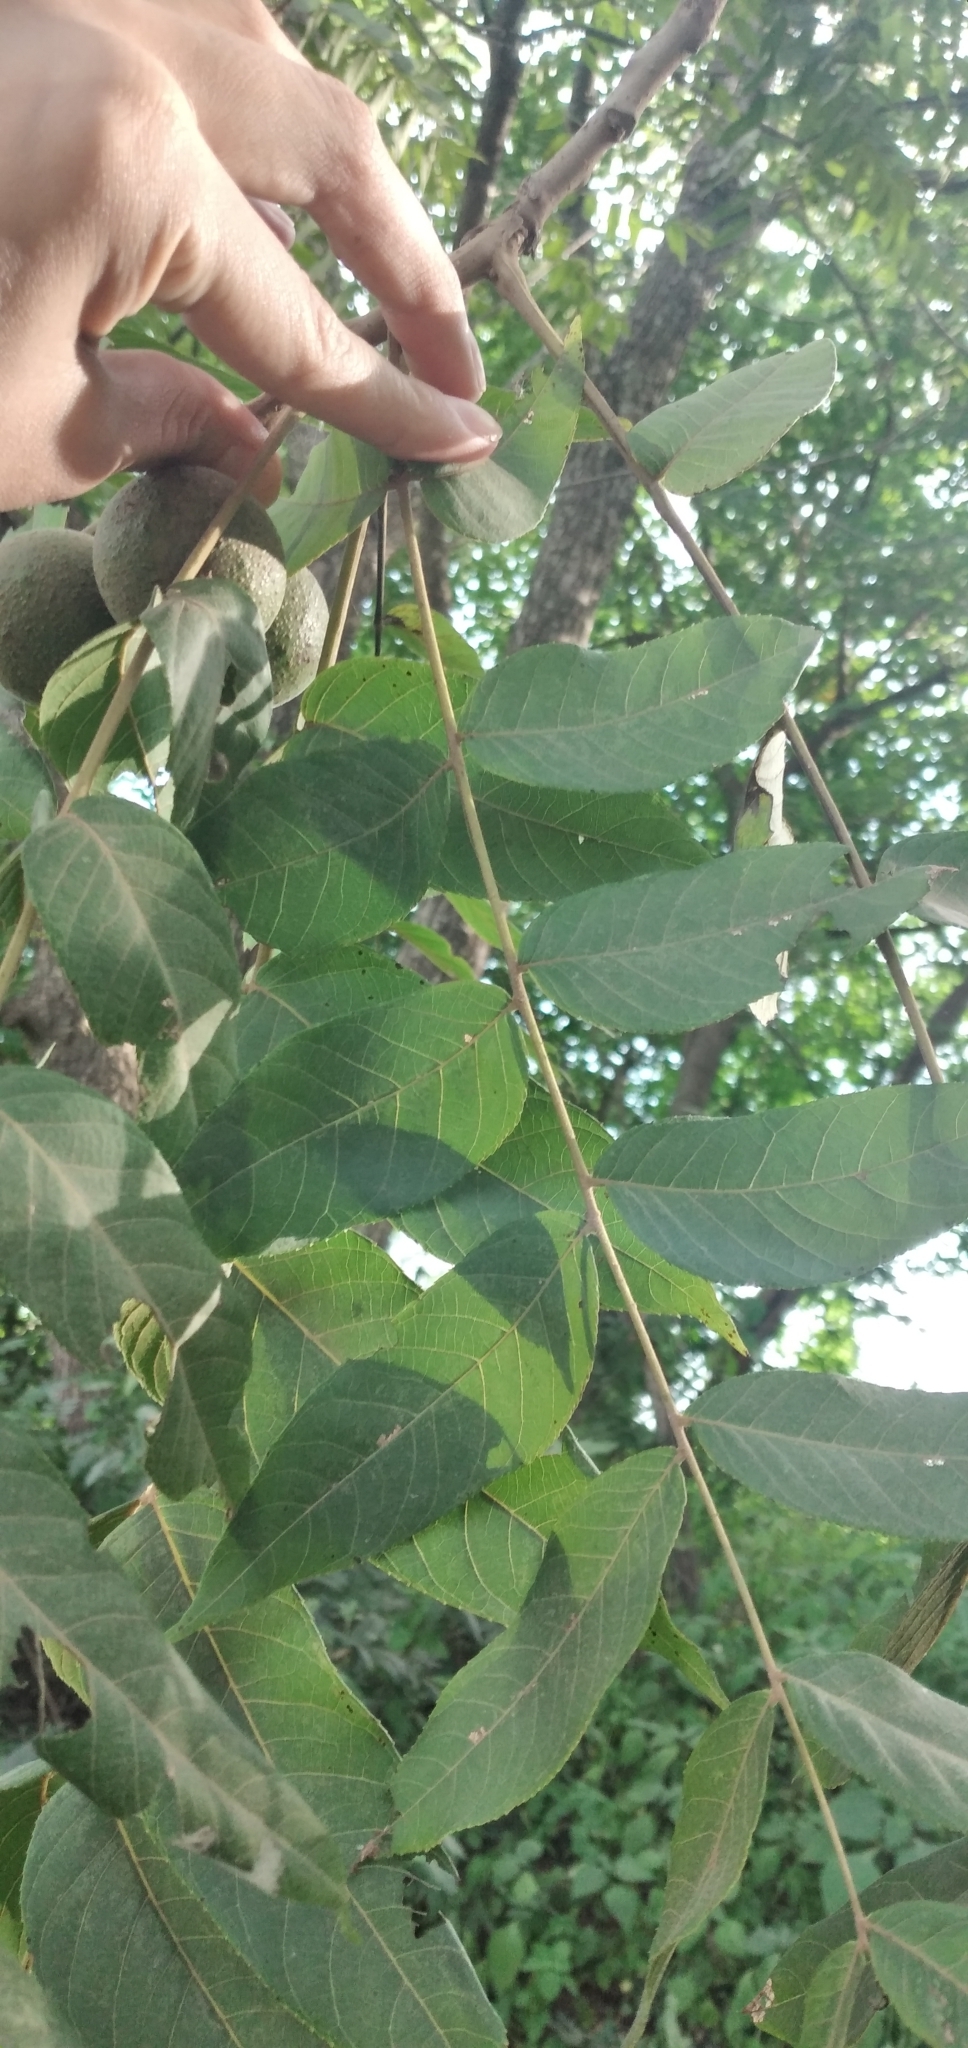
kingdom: Plantae
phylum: Tracheophyta
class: Magnoliopsida
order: Fagales
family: Juglandaceae
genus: Juglans
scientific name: Juglans australis
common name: Argentine walnut
